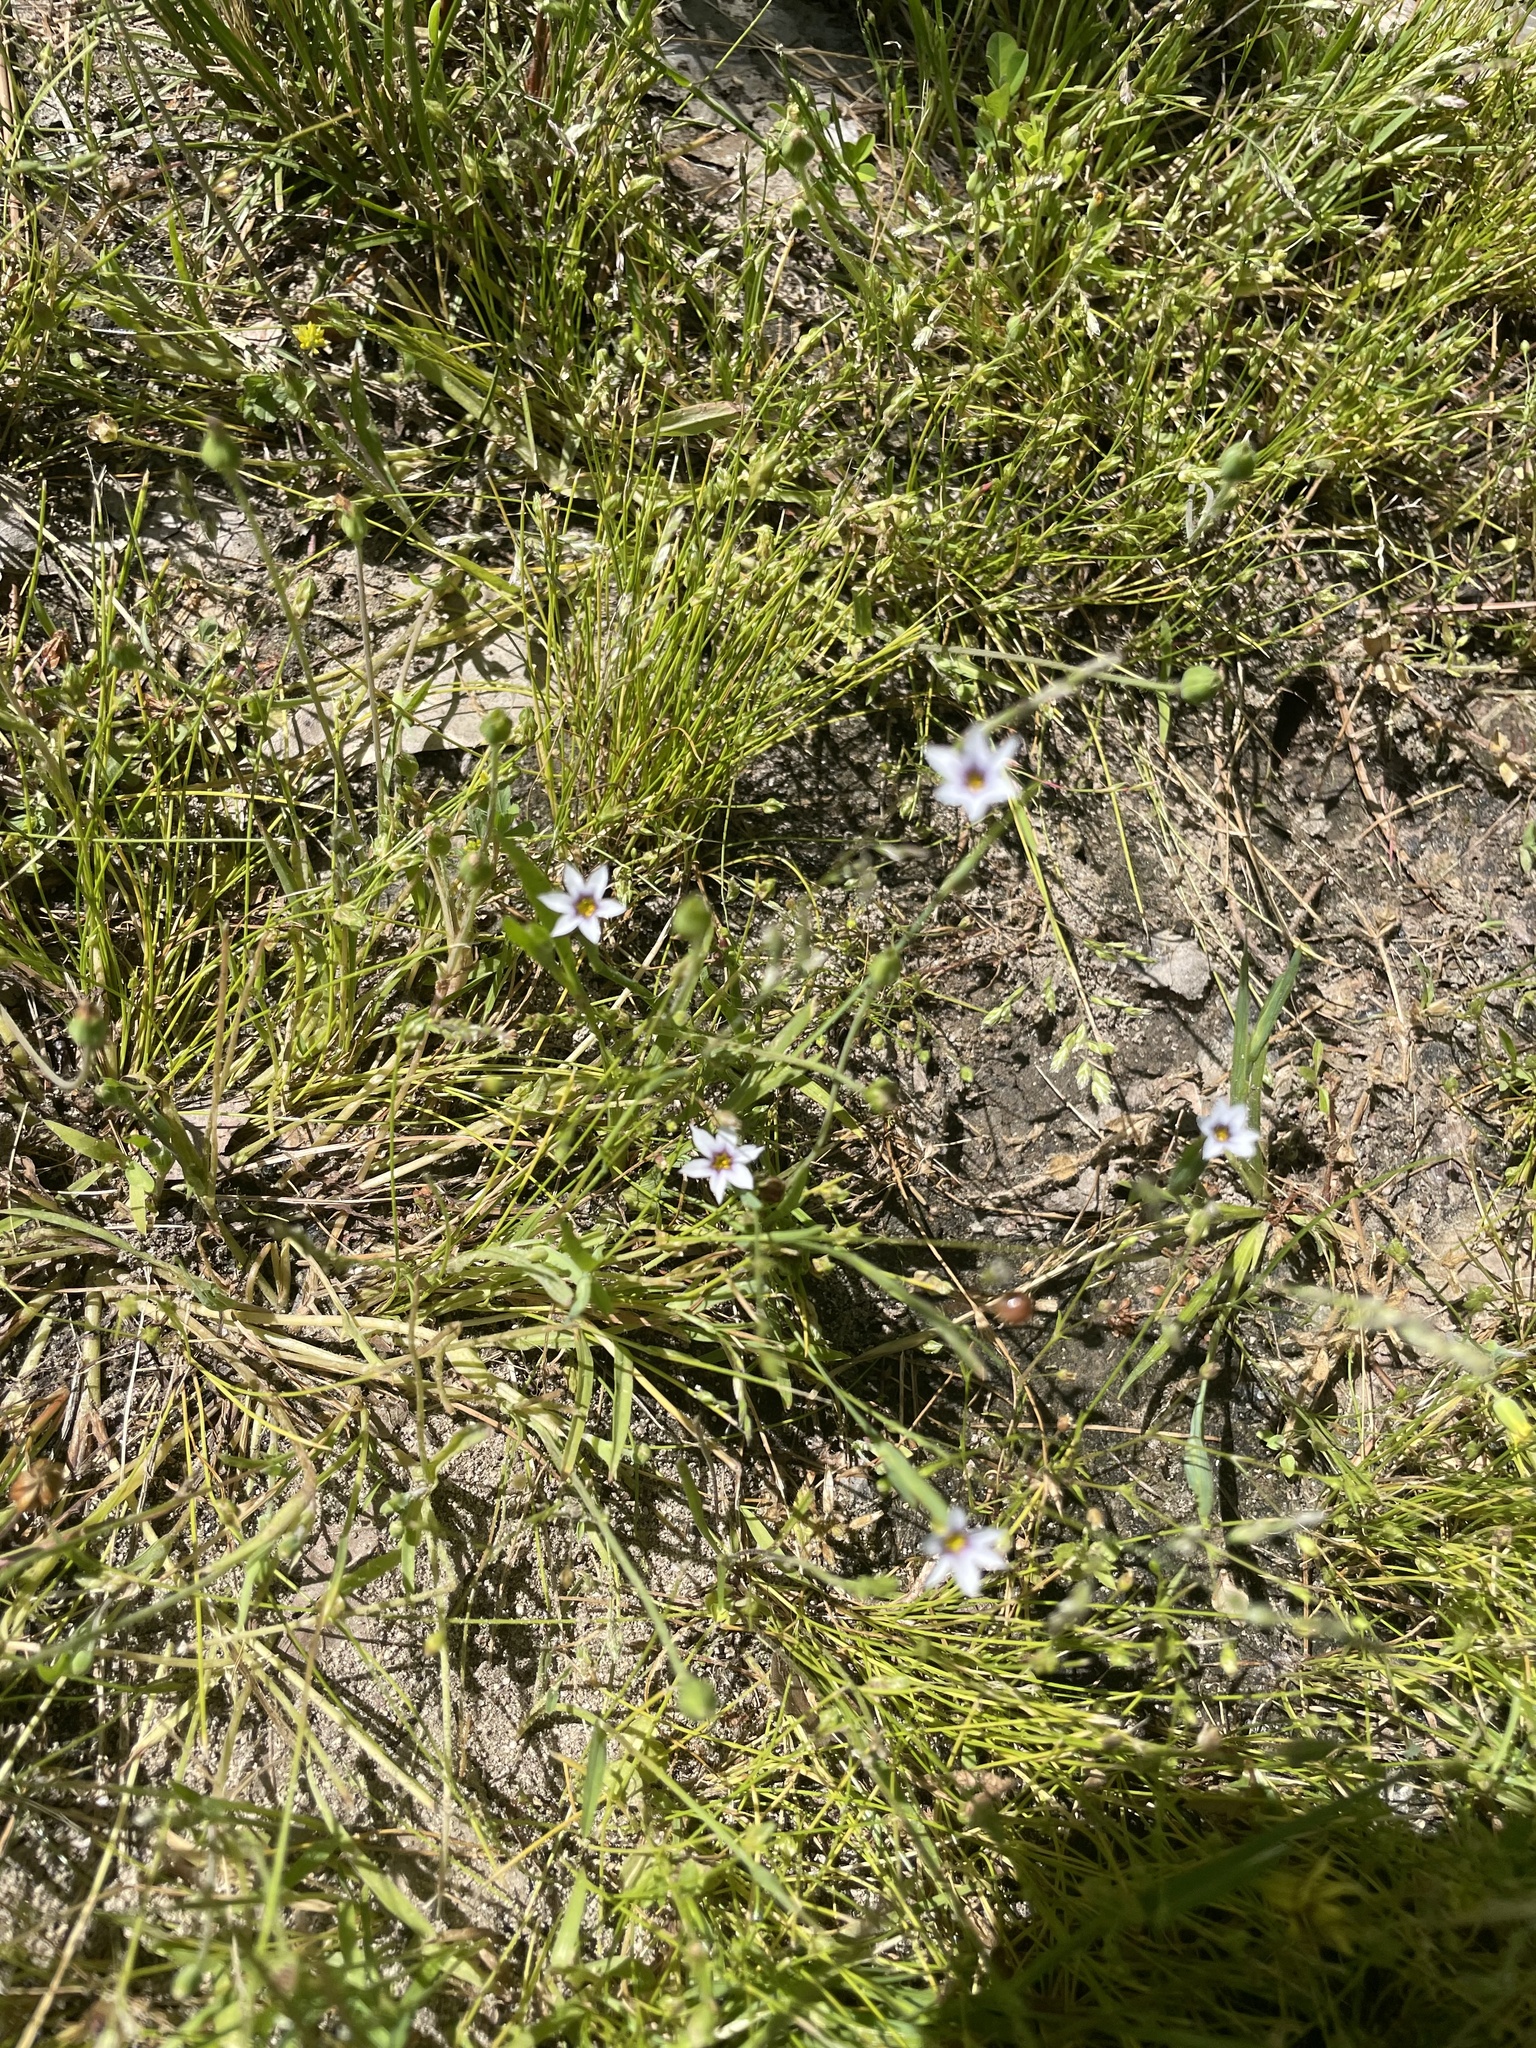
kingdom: Plantae
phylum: Tracheophyta
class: Liliopsida
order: Asparagales
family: Iridaceae
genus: Sisyrinchium
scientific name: Sisyrinchium micranthum
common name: Bermuda pigroot
